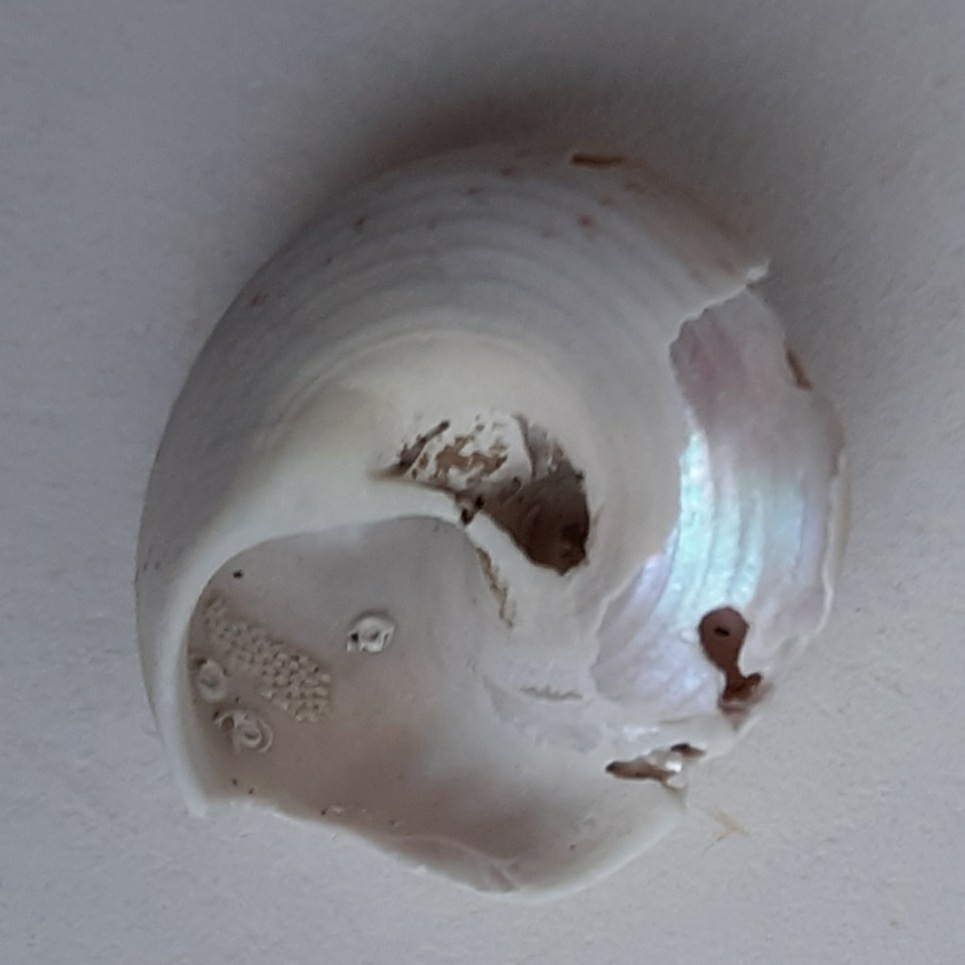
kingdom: Animalia
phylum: Mollusca
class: Gastropoda
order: Trochida
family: Trochidae
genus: Gibbula
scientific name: Gibbula magus
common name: Turban top shell
